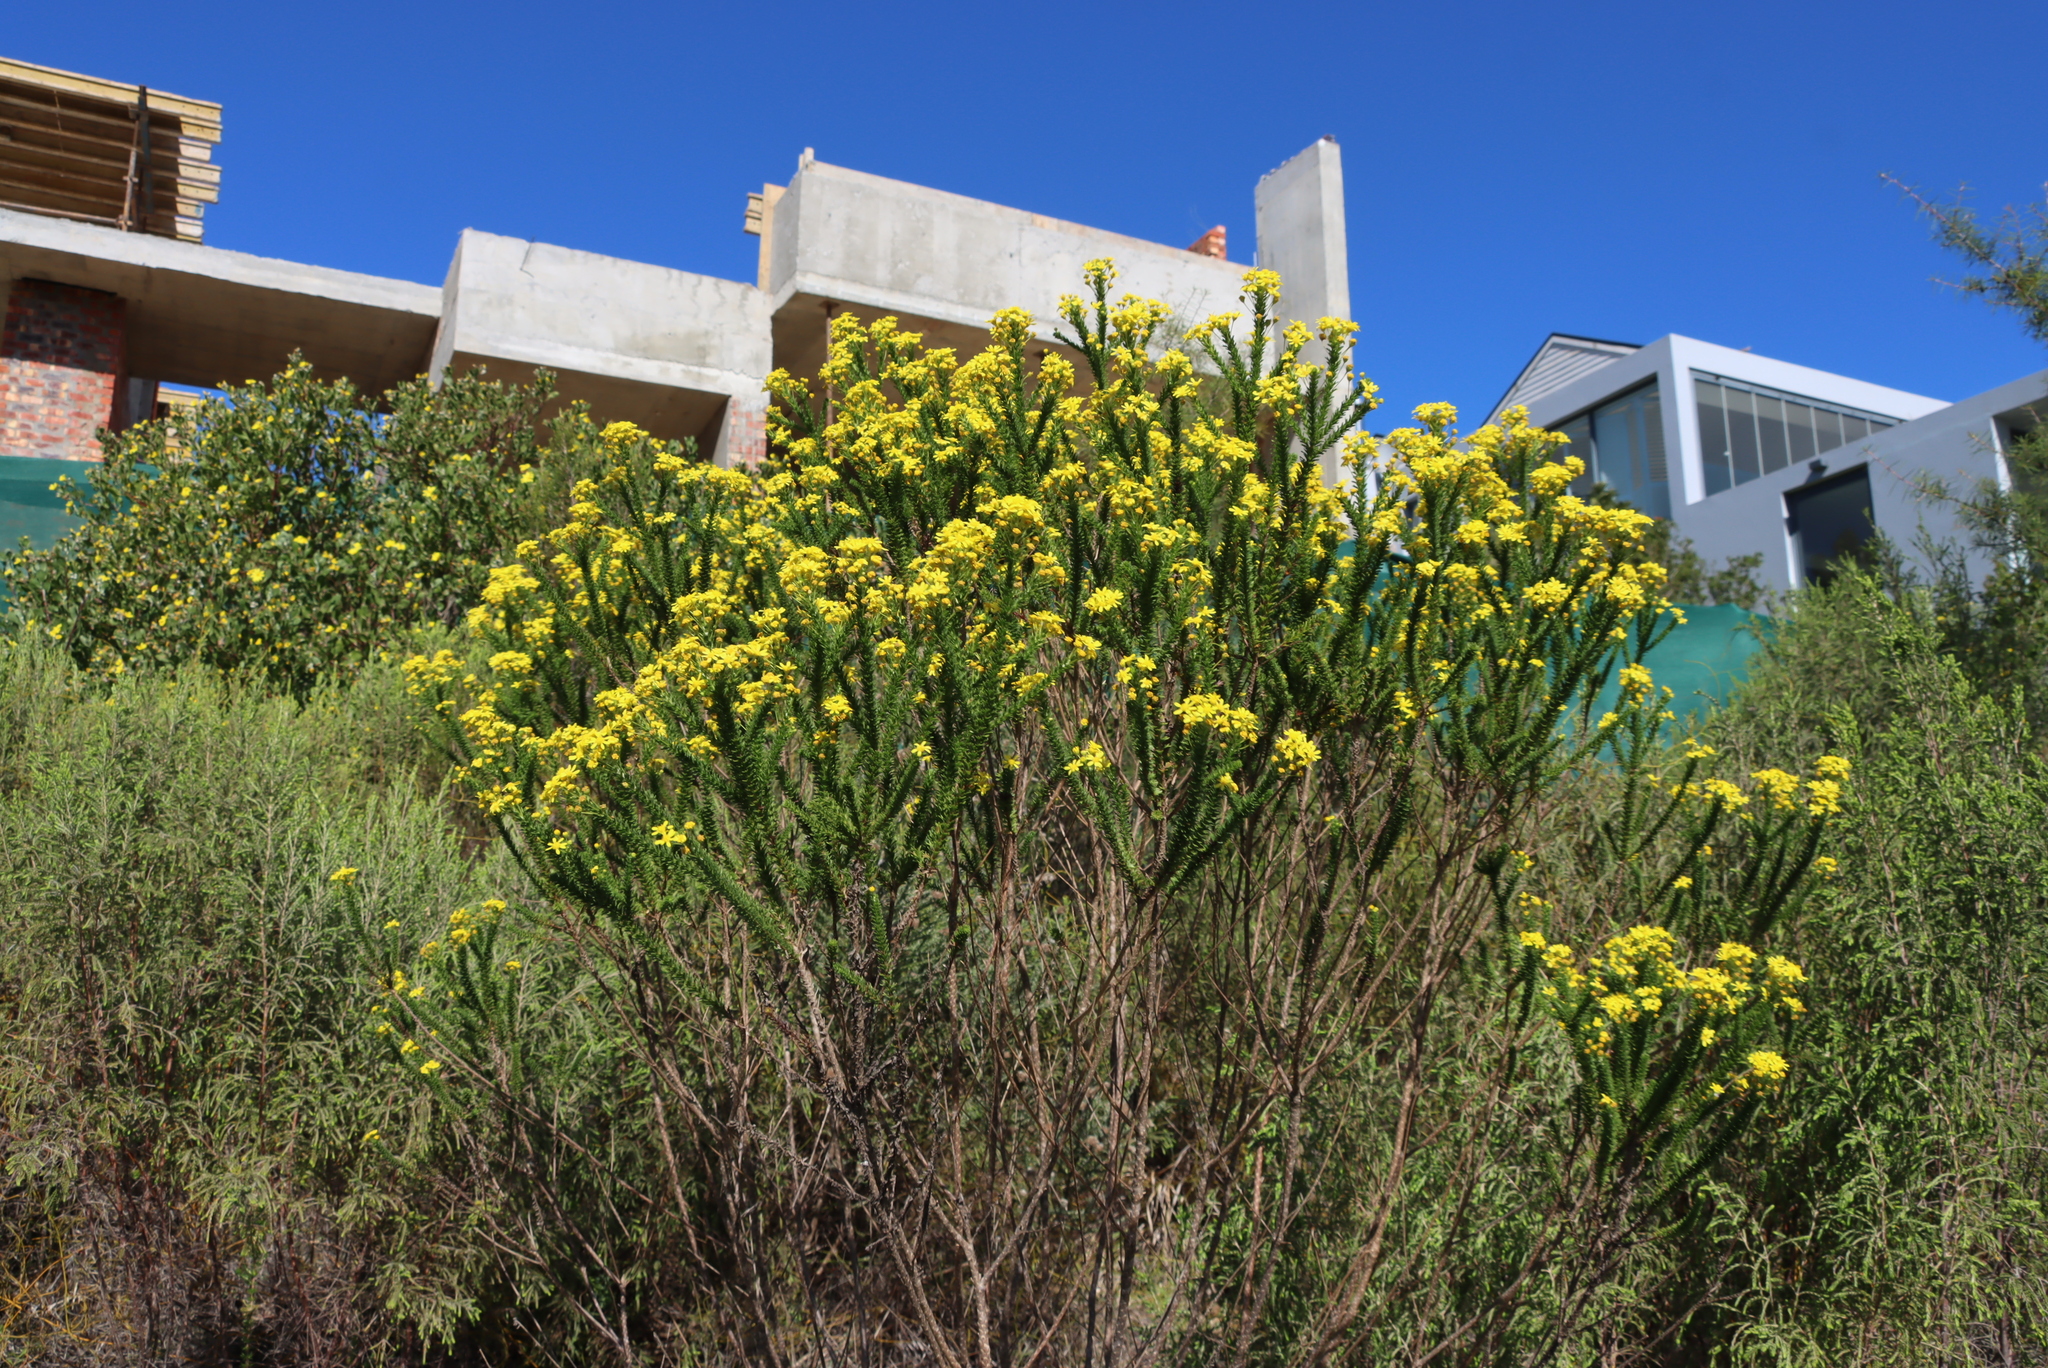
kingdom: Plantae
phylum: Tracheophyta
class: Magnoliopsida
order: Asterales
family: Asteraceae
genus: Euryops
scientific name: Euryops virgineus
